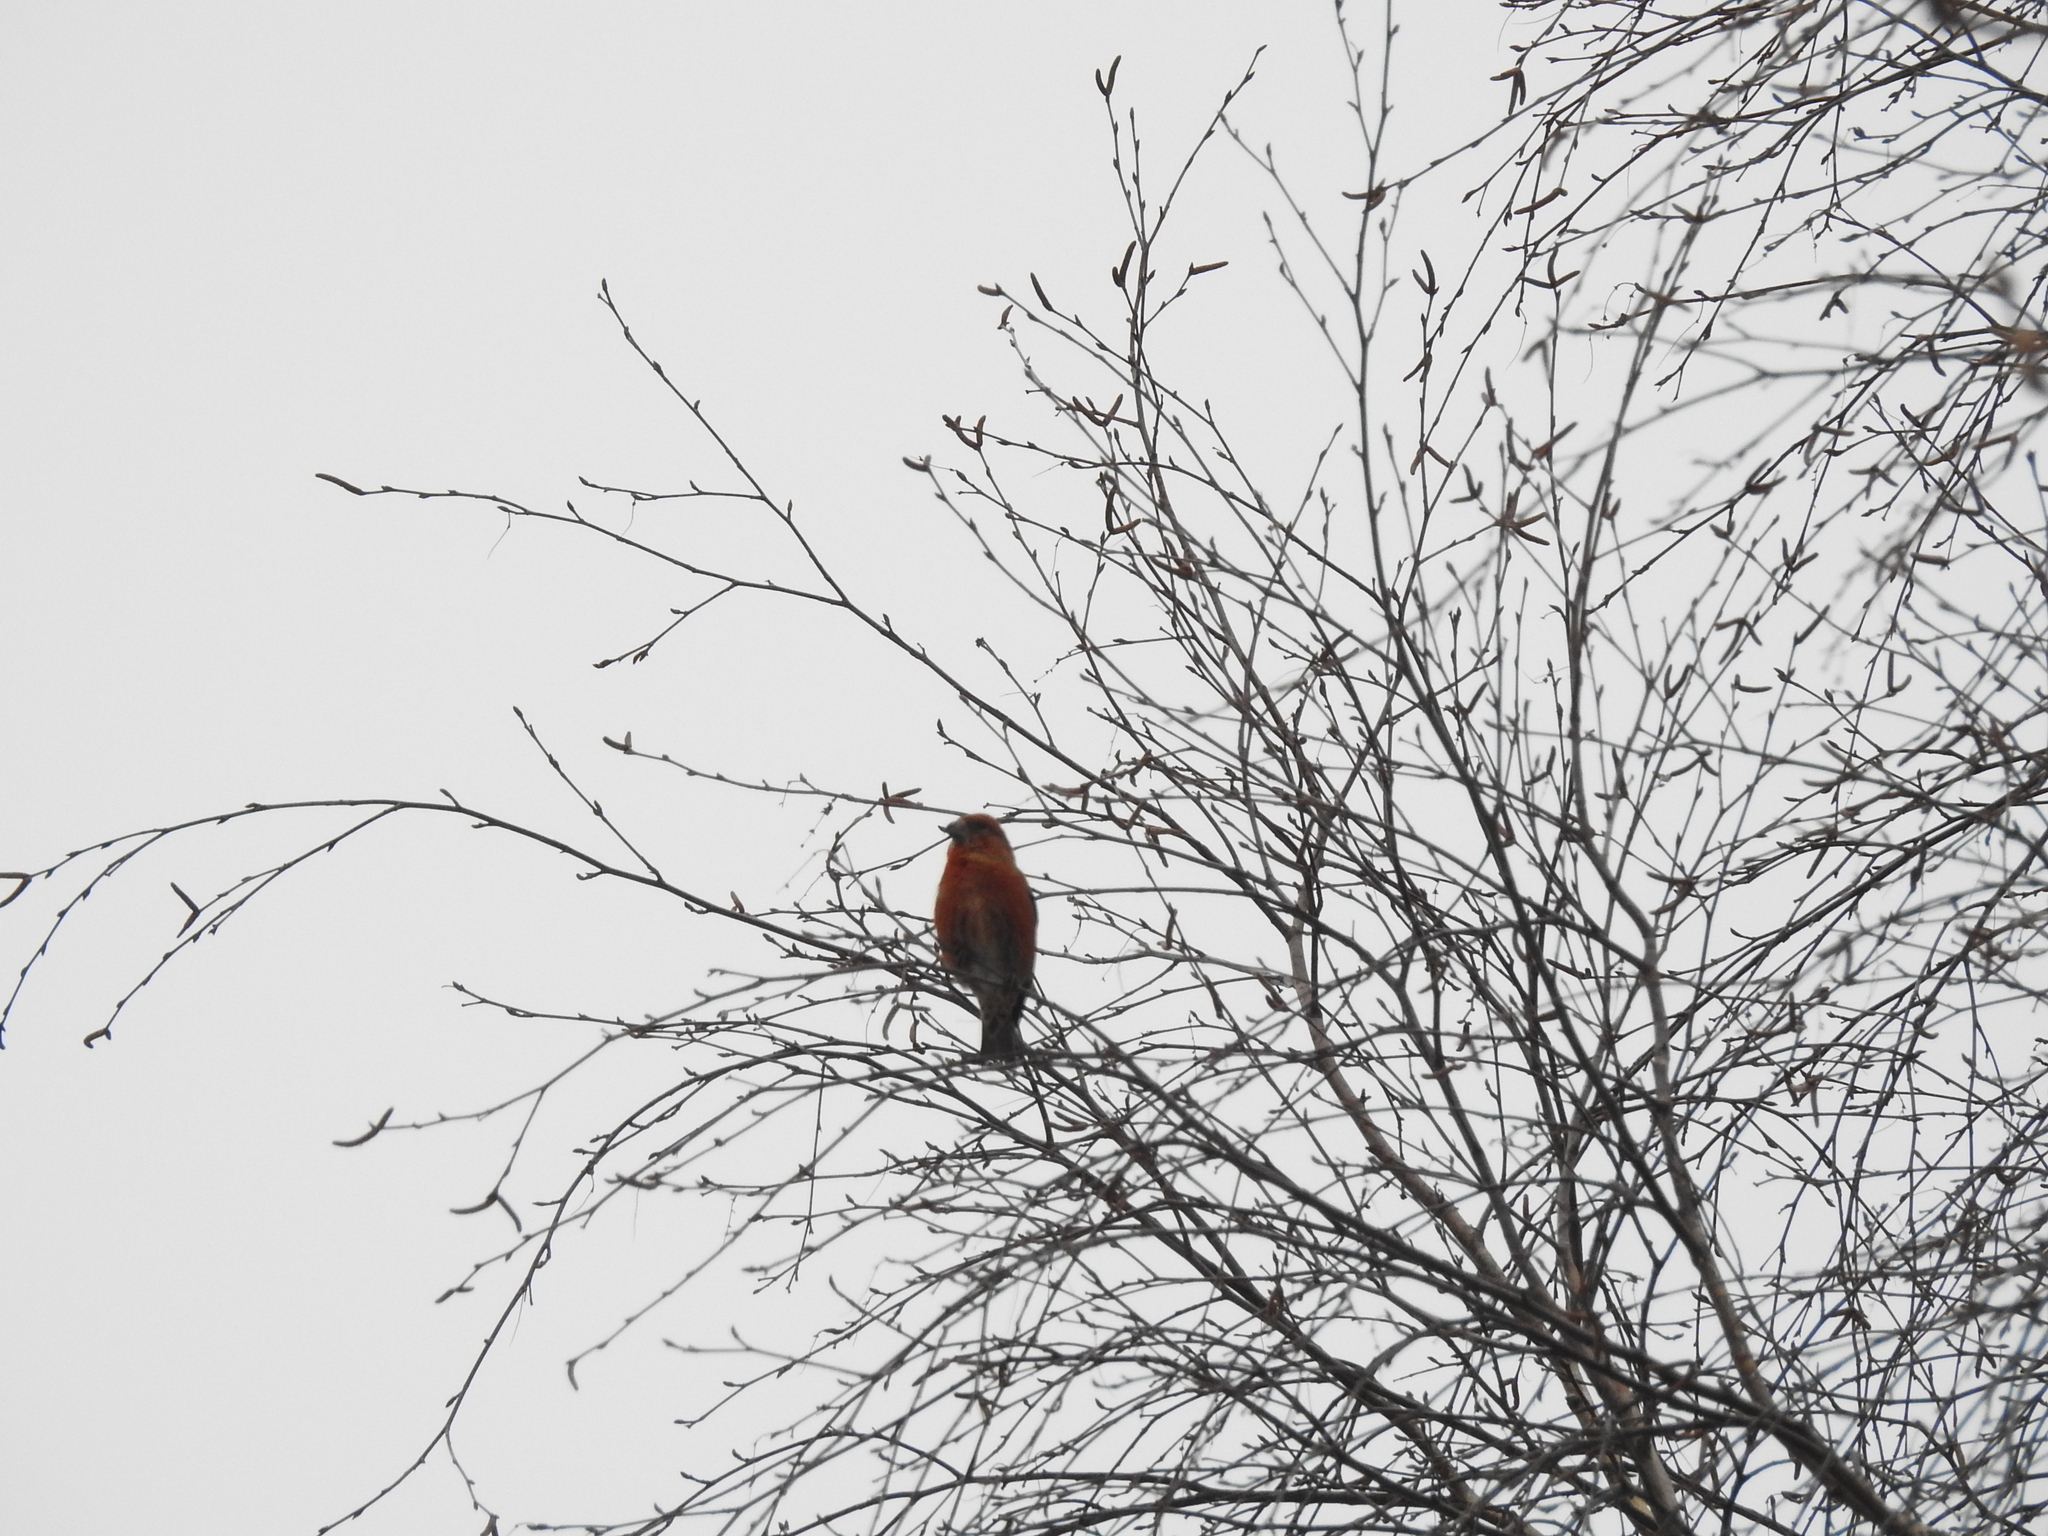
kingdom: Animalia
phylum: Chordata
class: Aves
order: Passeriformes
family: Fringillidae
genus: Loxia
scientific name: Loxia curvirostra
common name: Red crossbill
